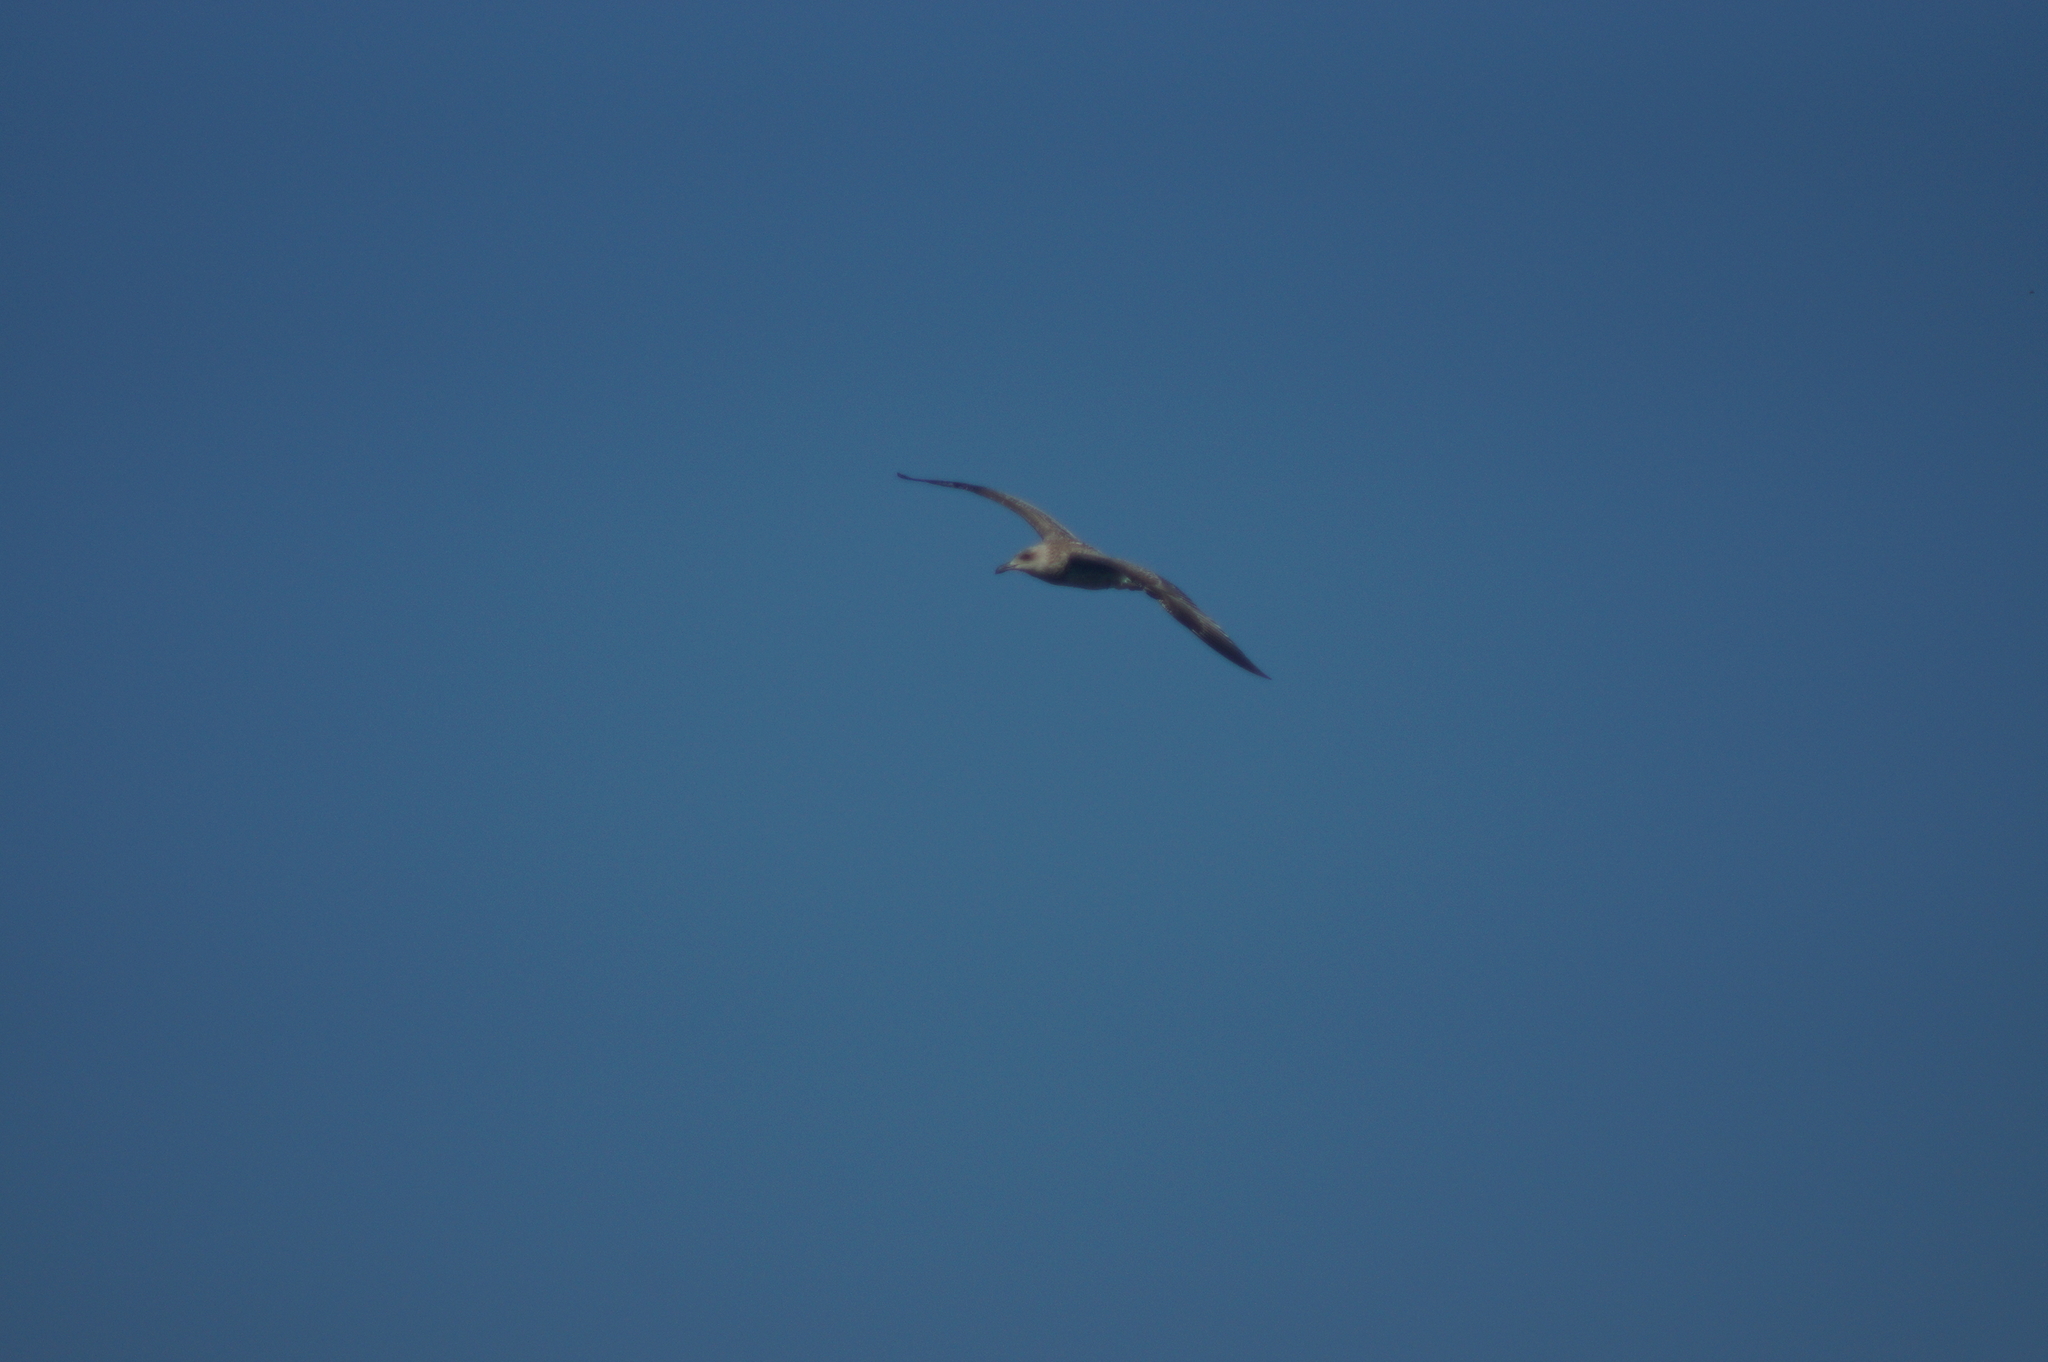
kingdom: Animalia
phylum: Chordata
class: Aves
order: Charadriiformes
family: Laridae
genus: Larus
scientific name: Larus cachinnans
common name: Caspian gull
